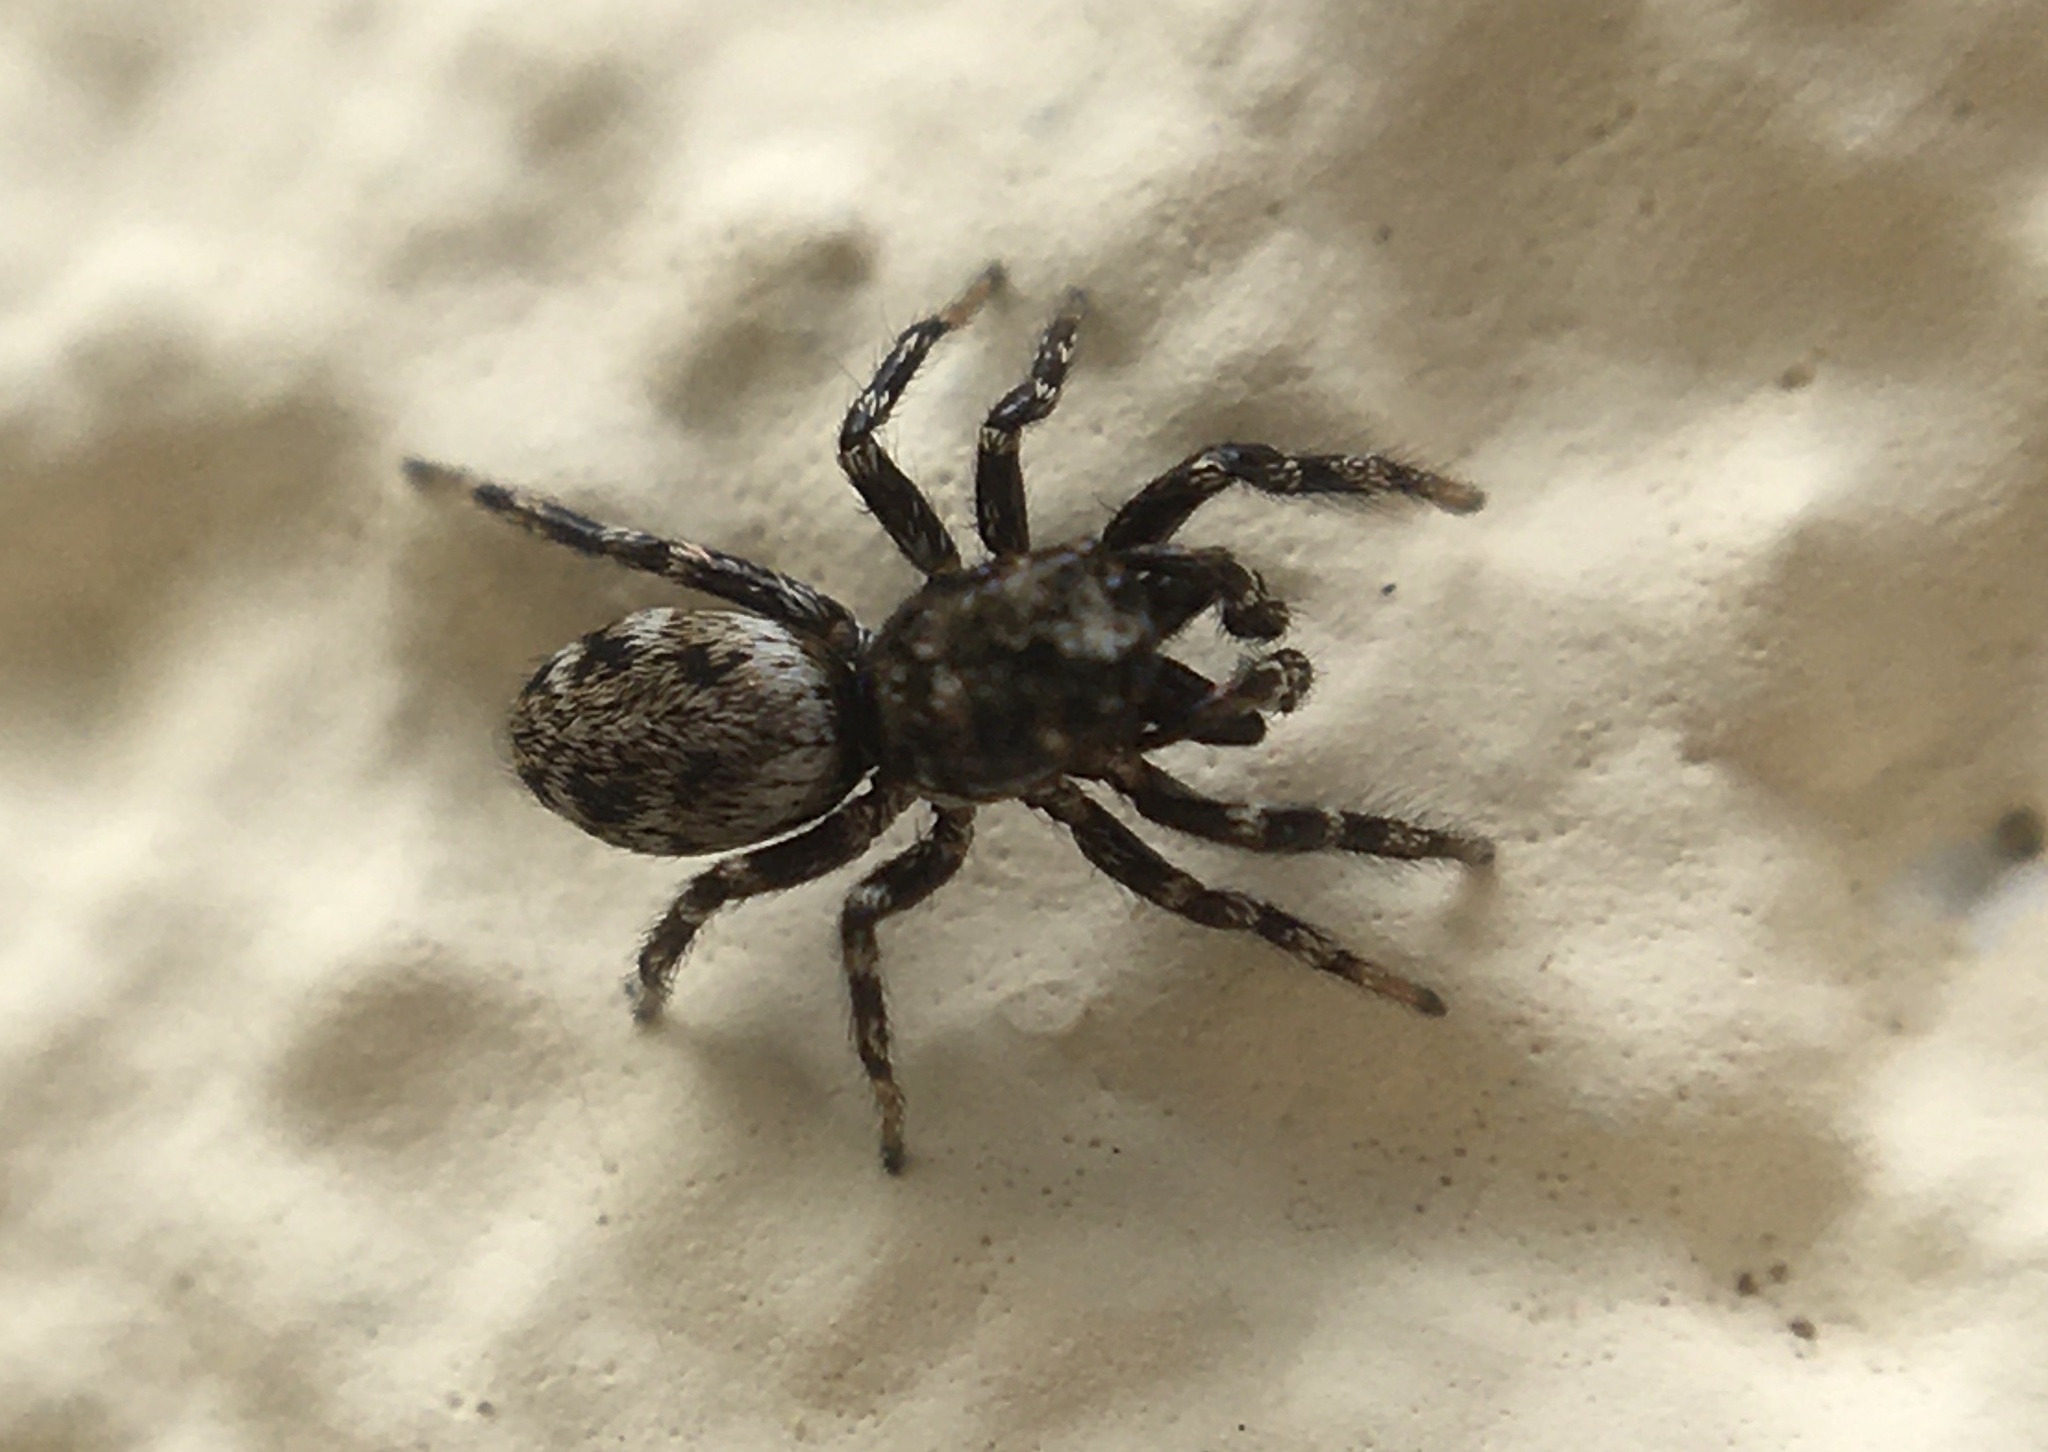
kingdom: Animalia
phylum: Arthropoda
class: Arachnida
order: Araneae
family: Salticidae
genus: Salticus
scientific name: Salticus
